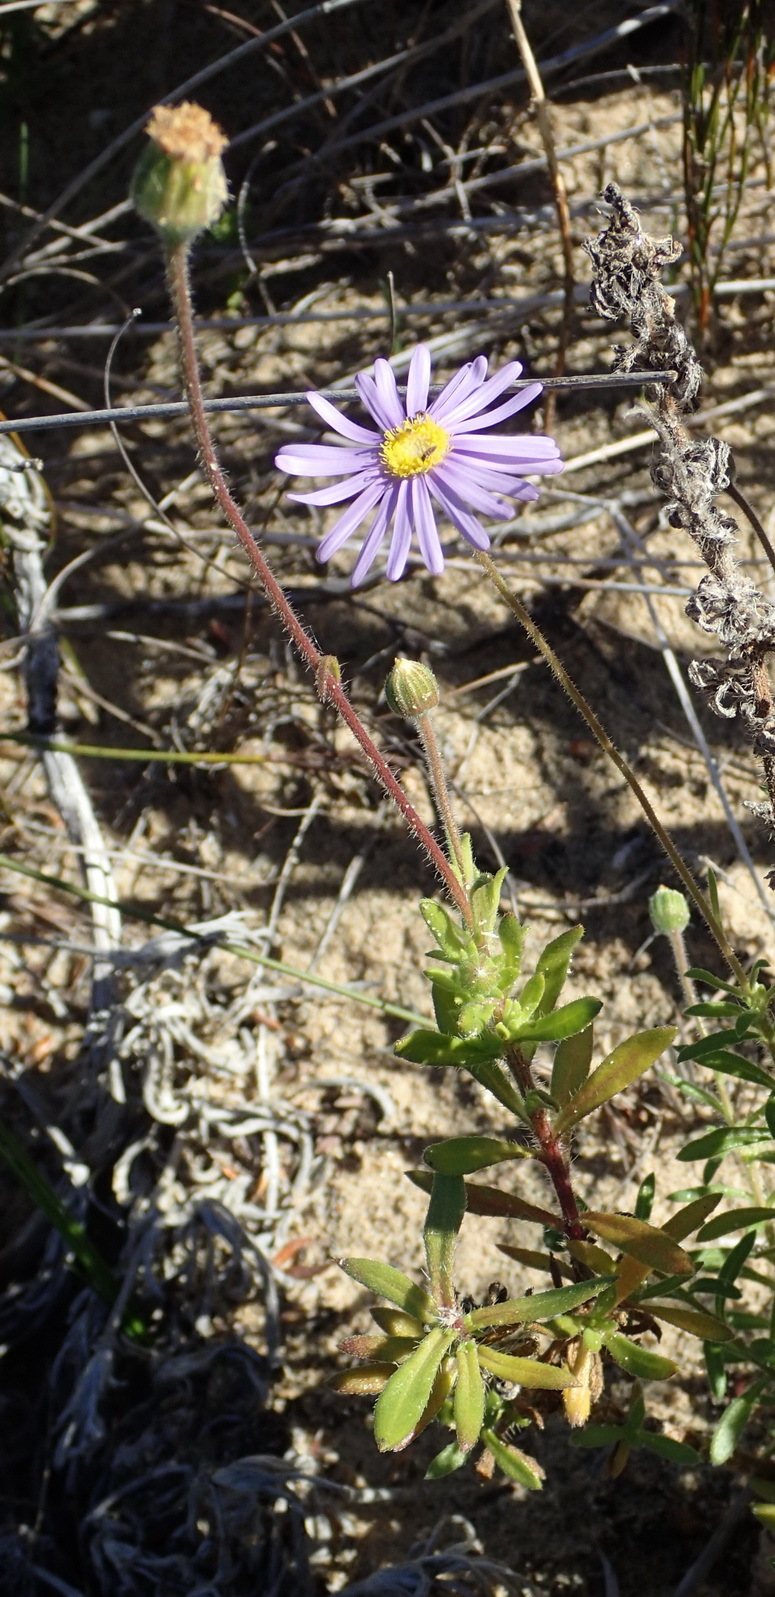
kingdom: Plantae
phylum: Tracheophyta
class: Magnoliopsida
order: Asterales
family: Asteraceae
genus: Felicia
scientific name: Felicia amoena
